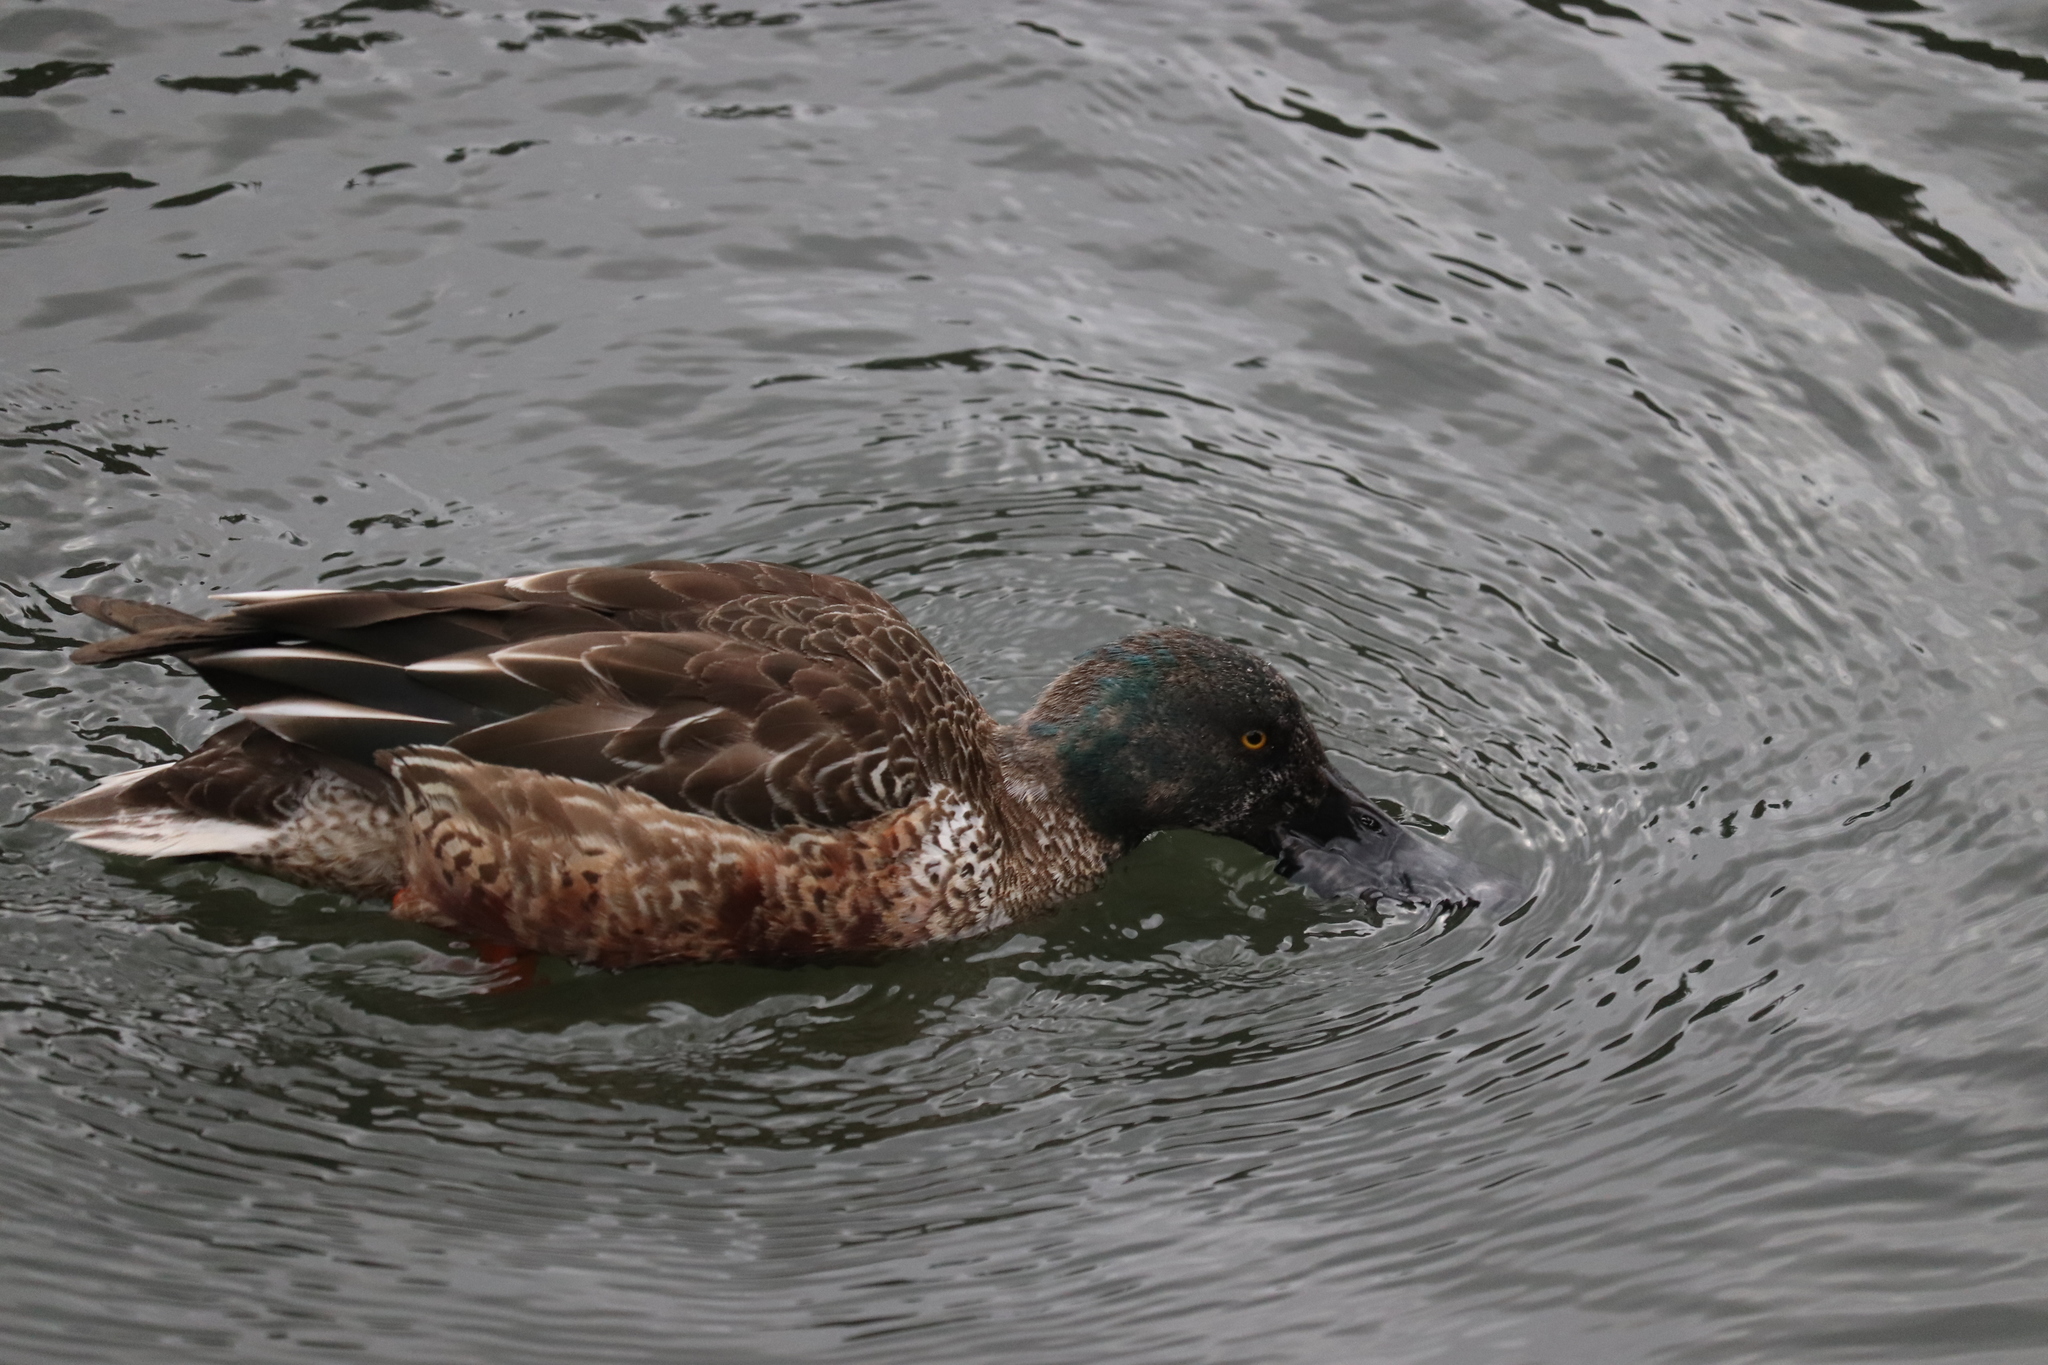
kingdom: Animalia
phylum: Chordata
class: Aves
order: Anseriformes
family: Anatidae
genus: Spatula
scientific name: Spatula clypeata
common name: Northern shoveler
